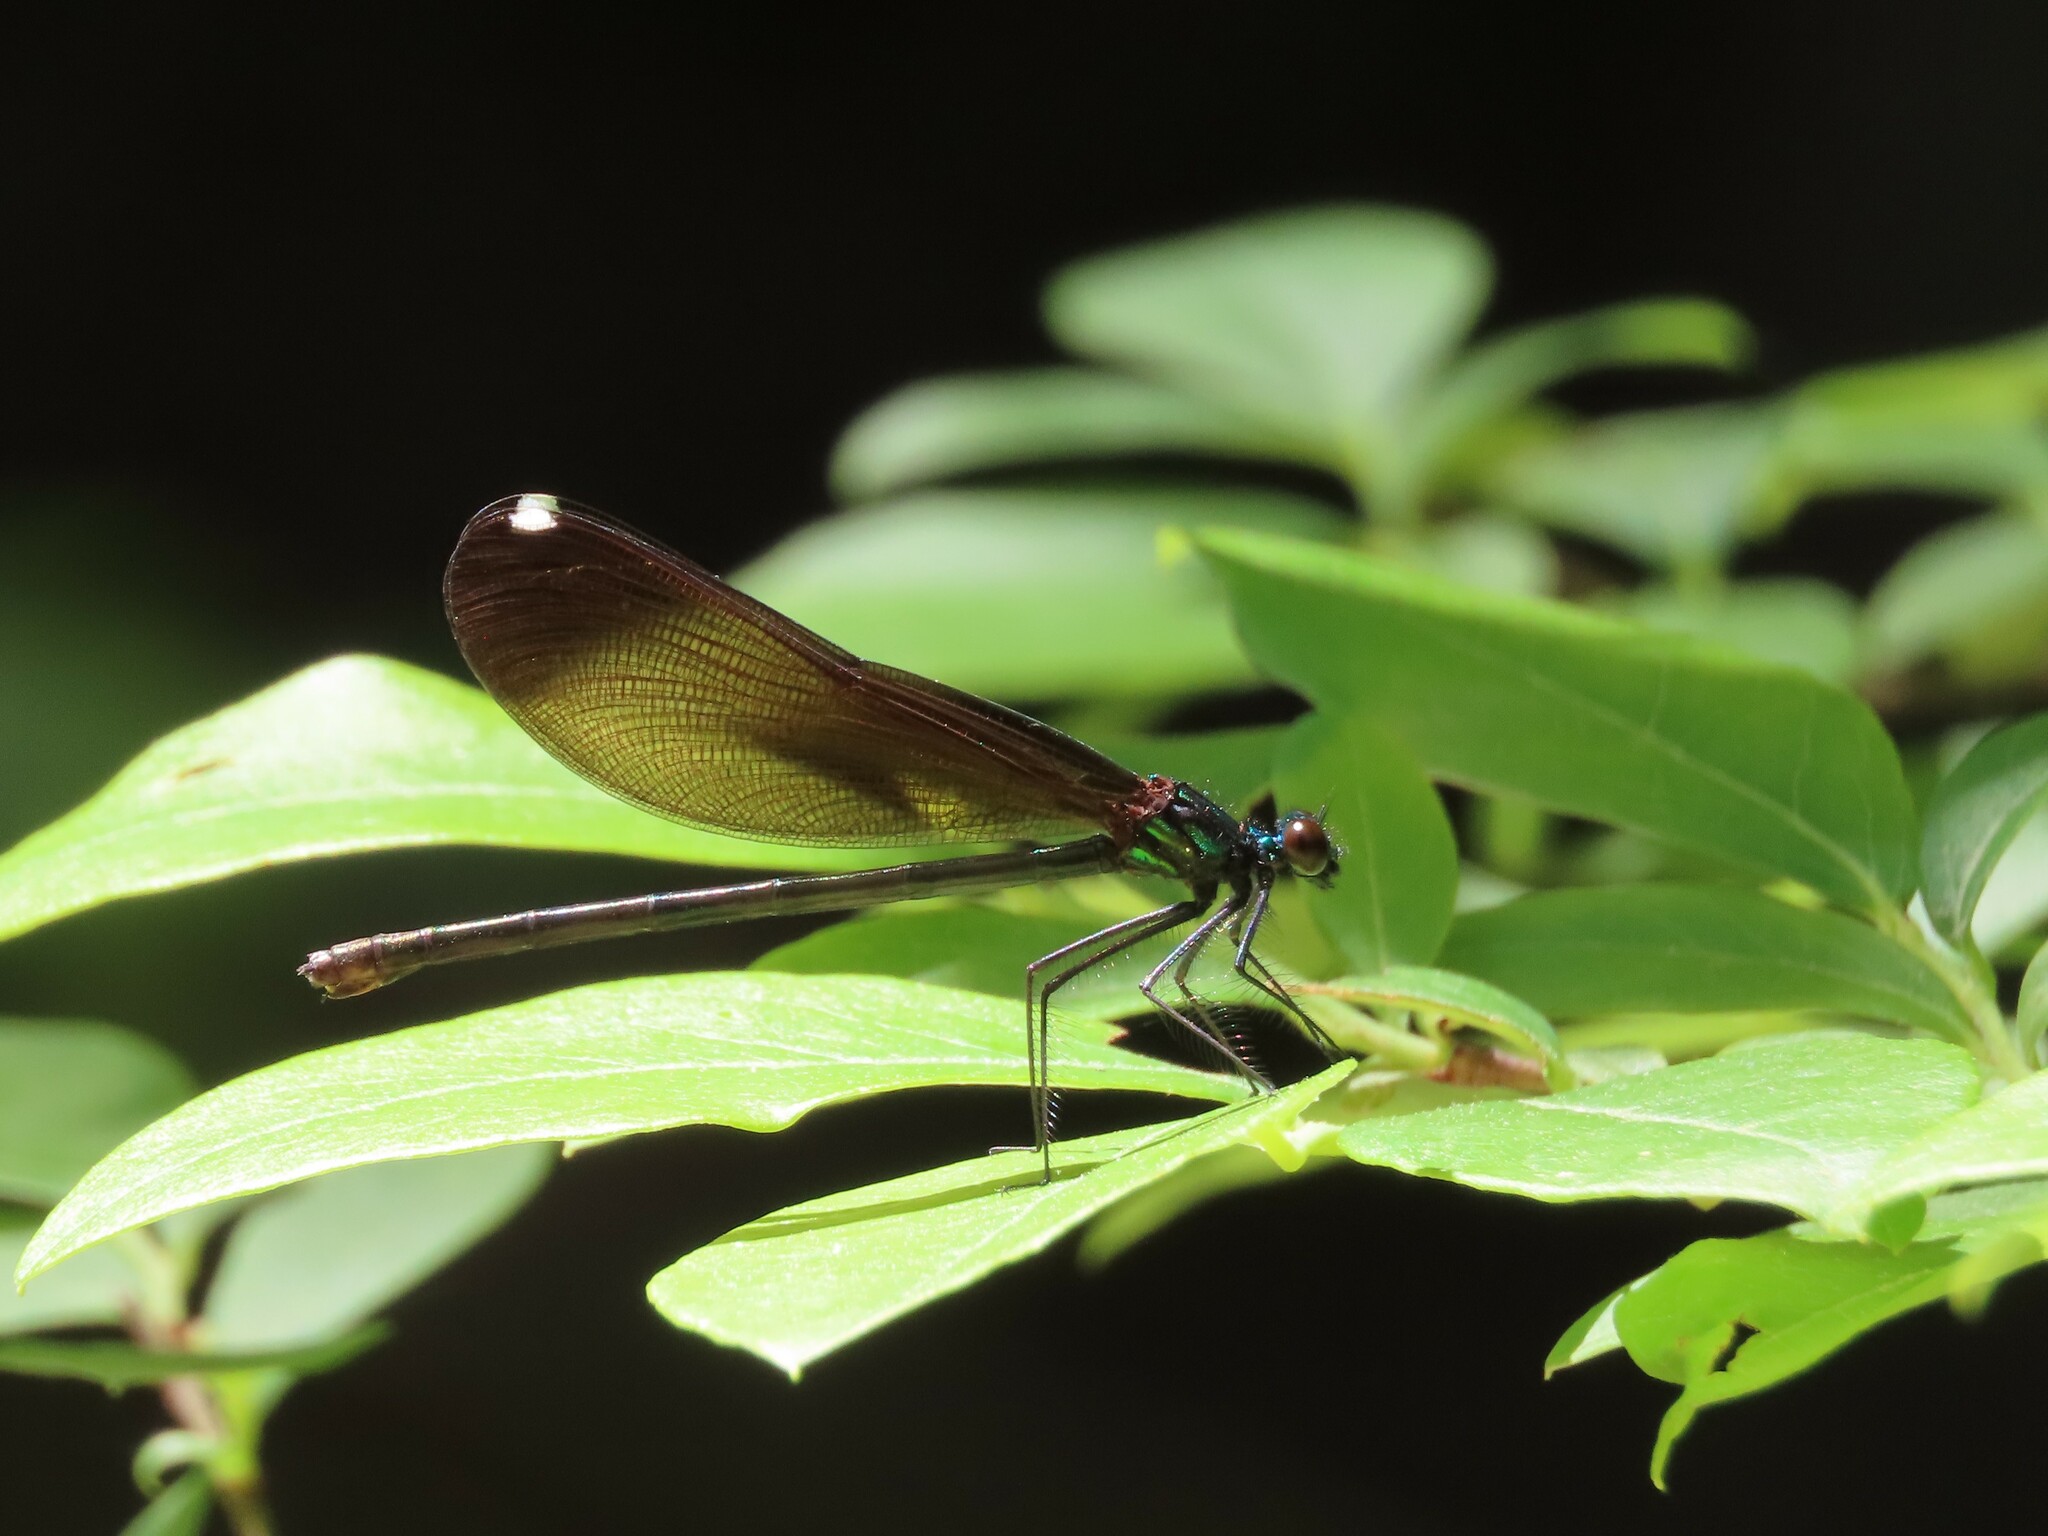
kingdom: Animalia
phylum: Arthropoda
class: Insecta
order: Odonata
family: Calopterygidae
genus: Calopteryx
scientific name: Calopteryx maculata
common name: Ebony jewelwing
